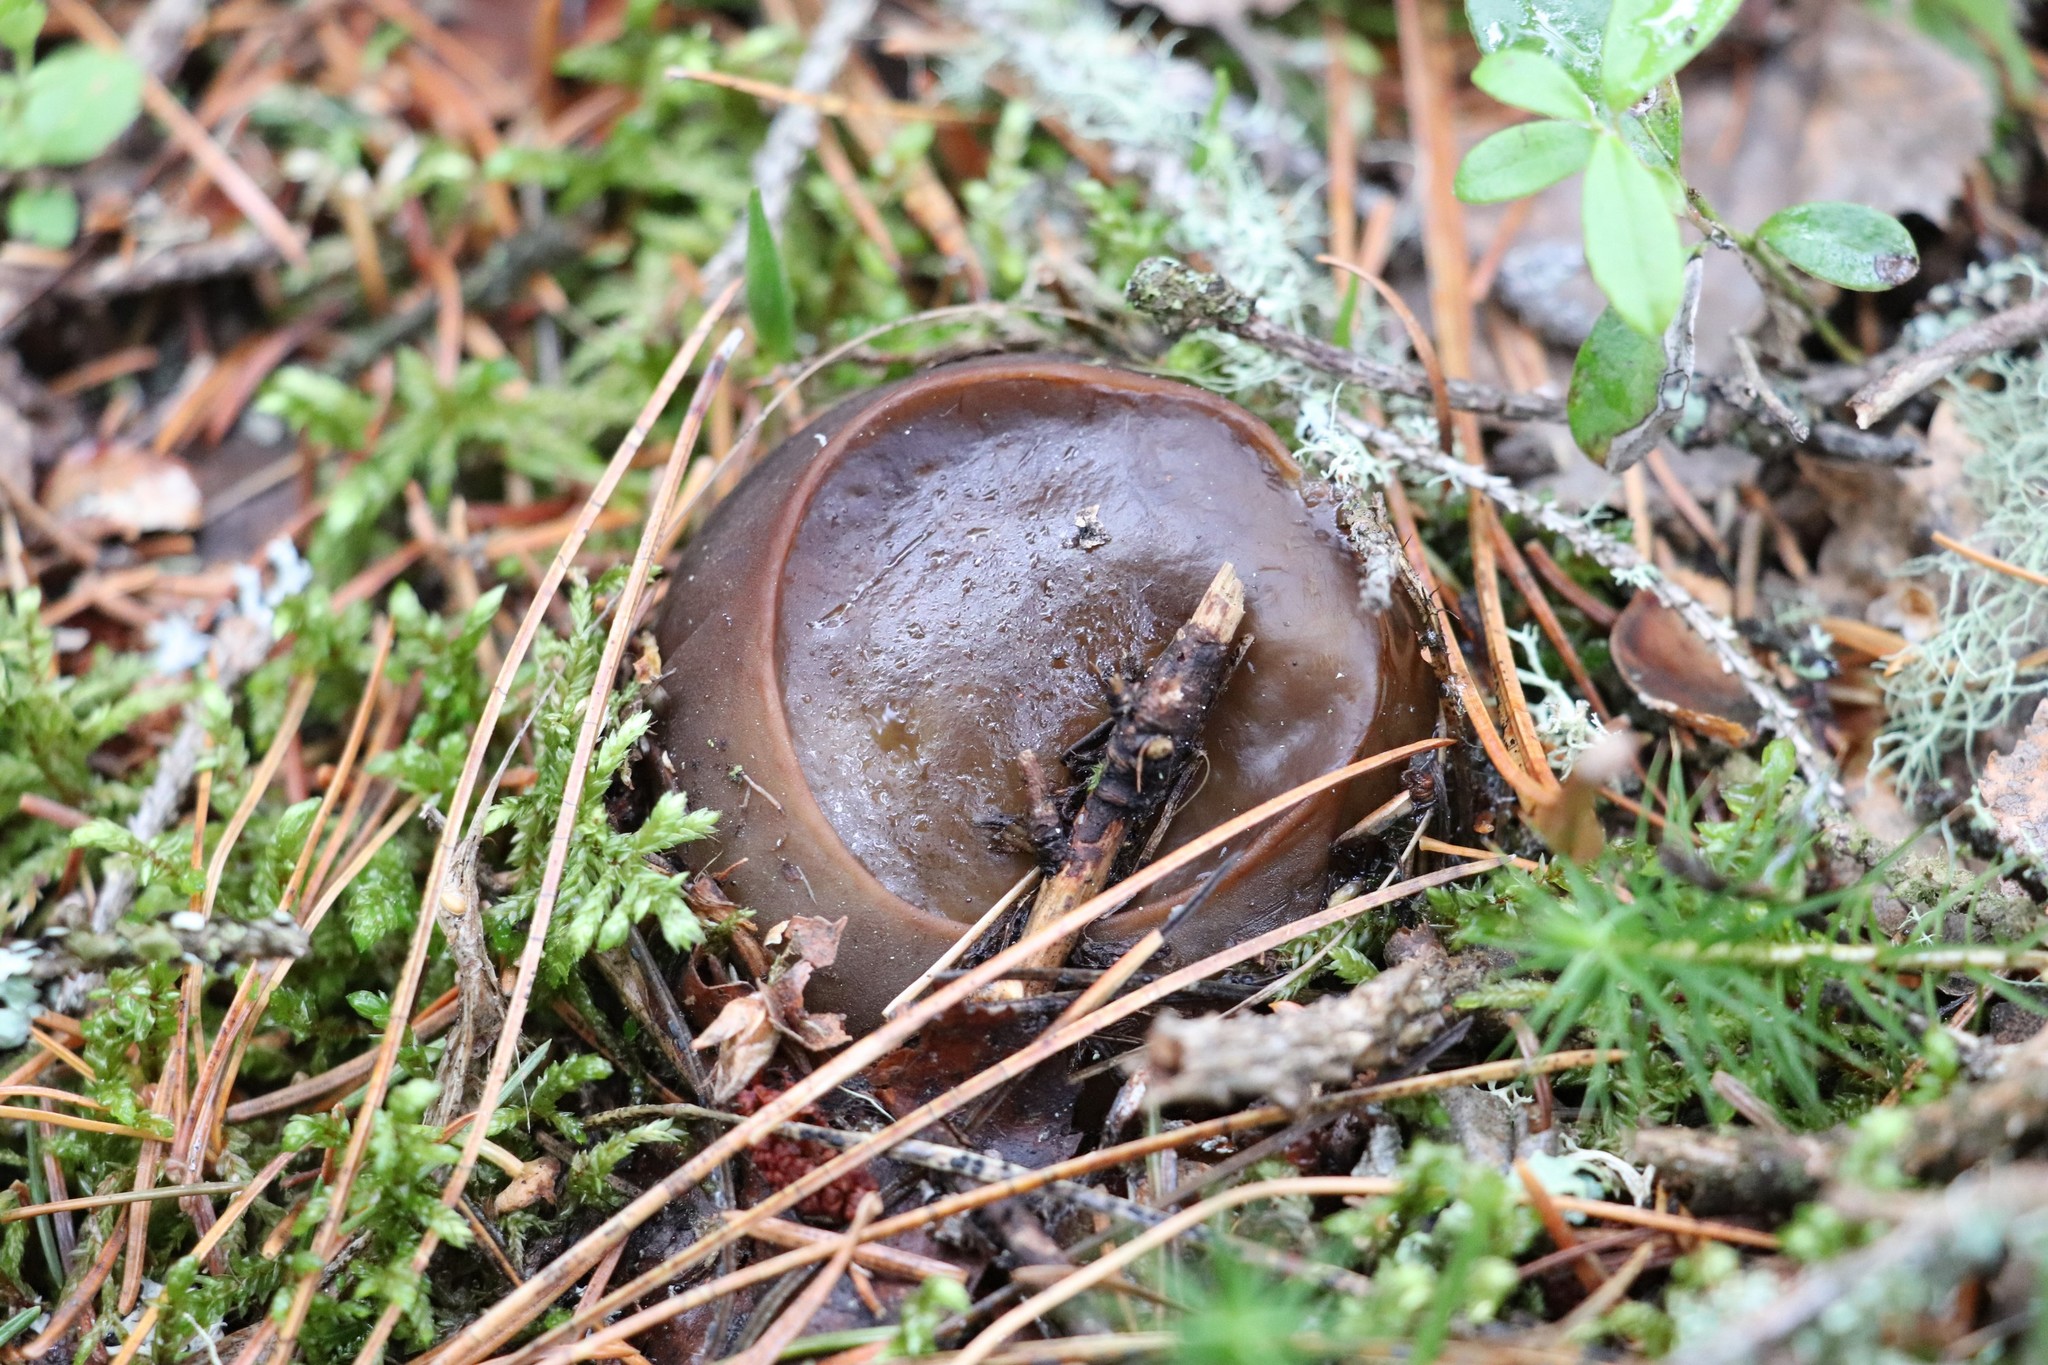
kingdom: Fungi
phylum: Ascomycota
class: Pezizomycetes
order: Pezizales
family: Sarcosomataceae
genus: Sarcosoma
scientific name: Sarcosoma globosum
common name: Charred-pancake cup
